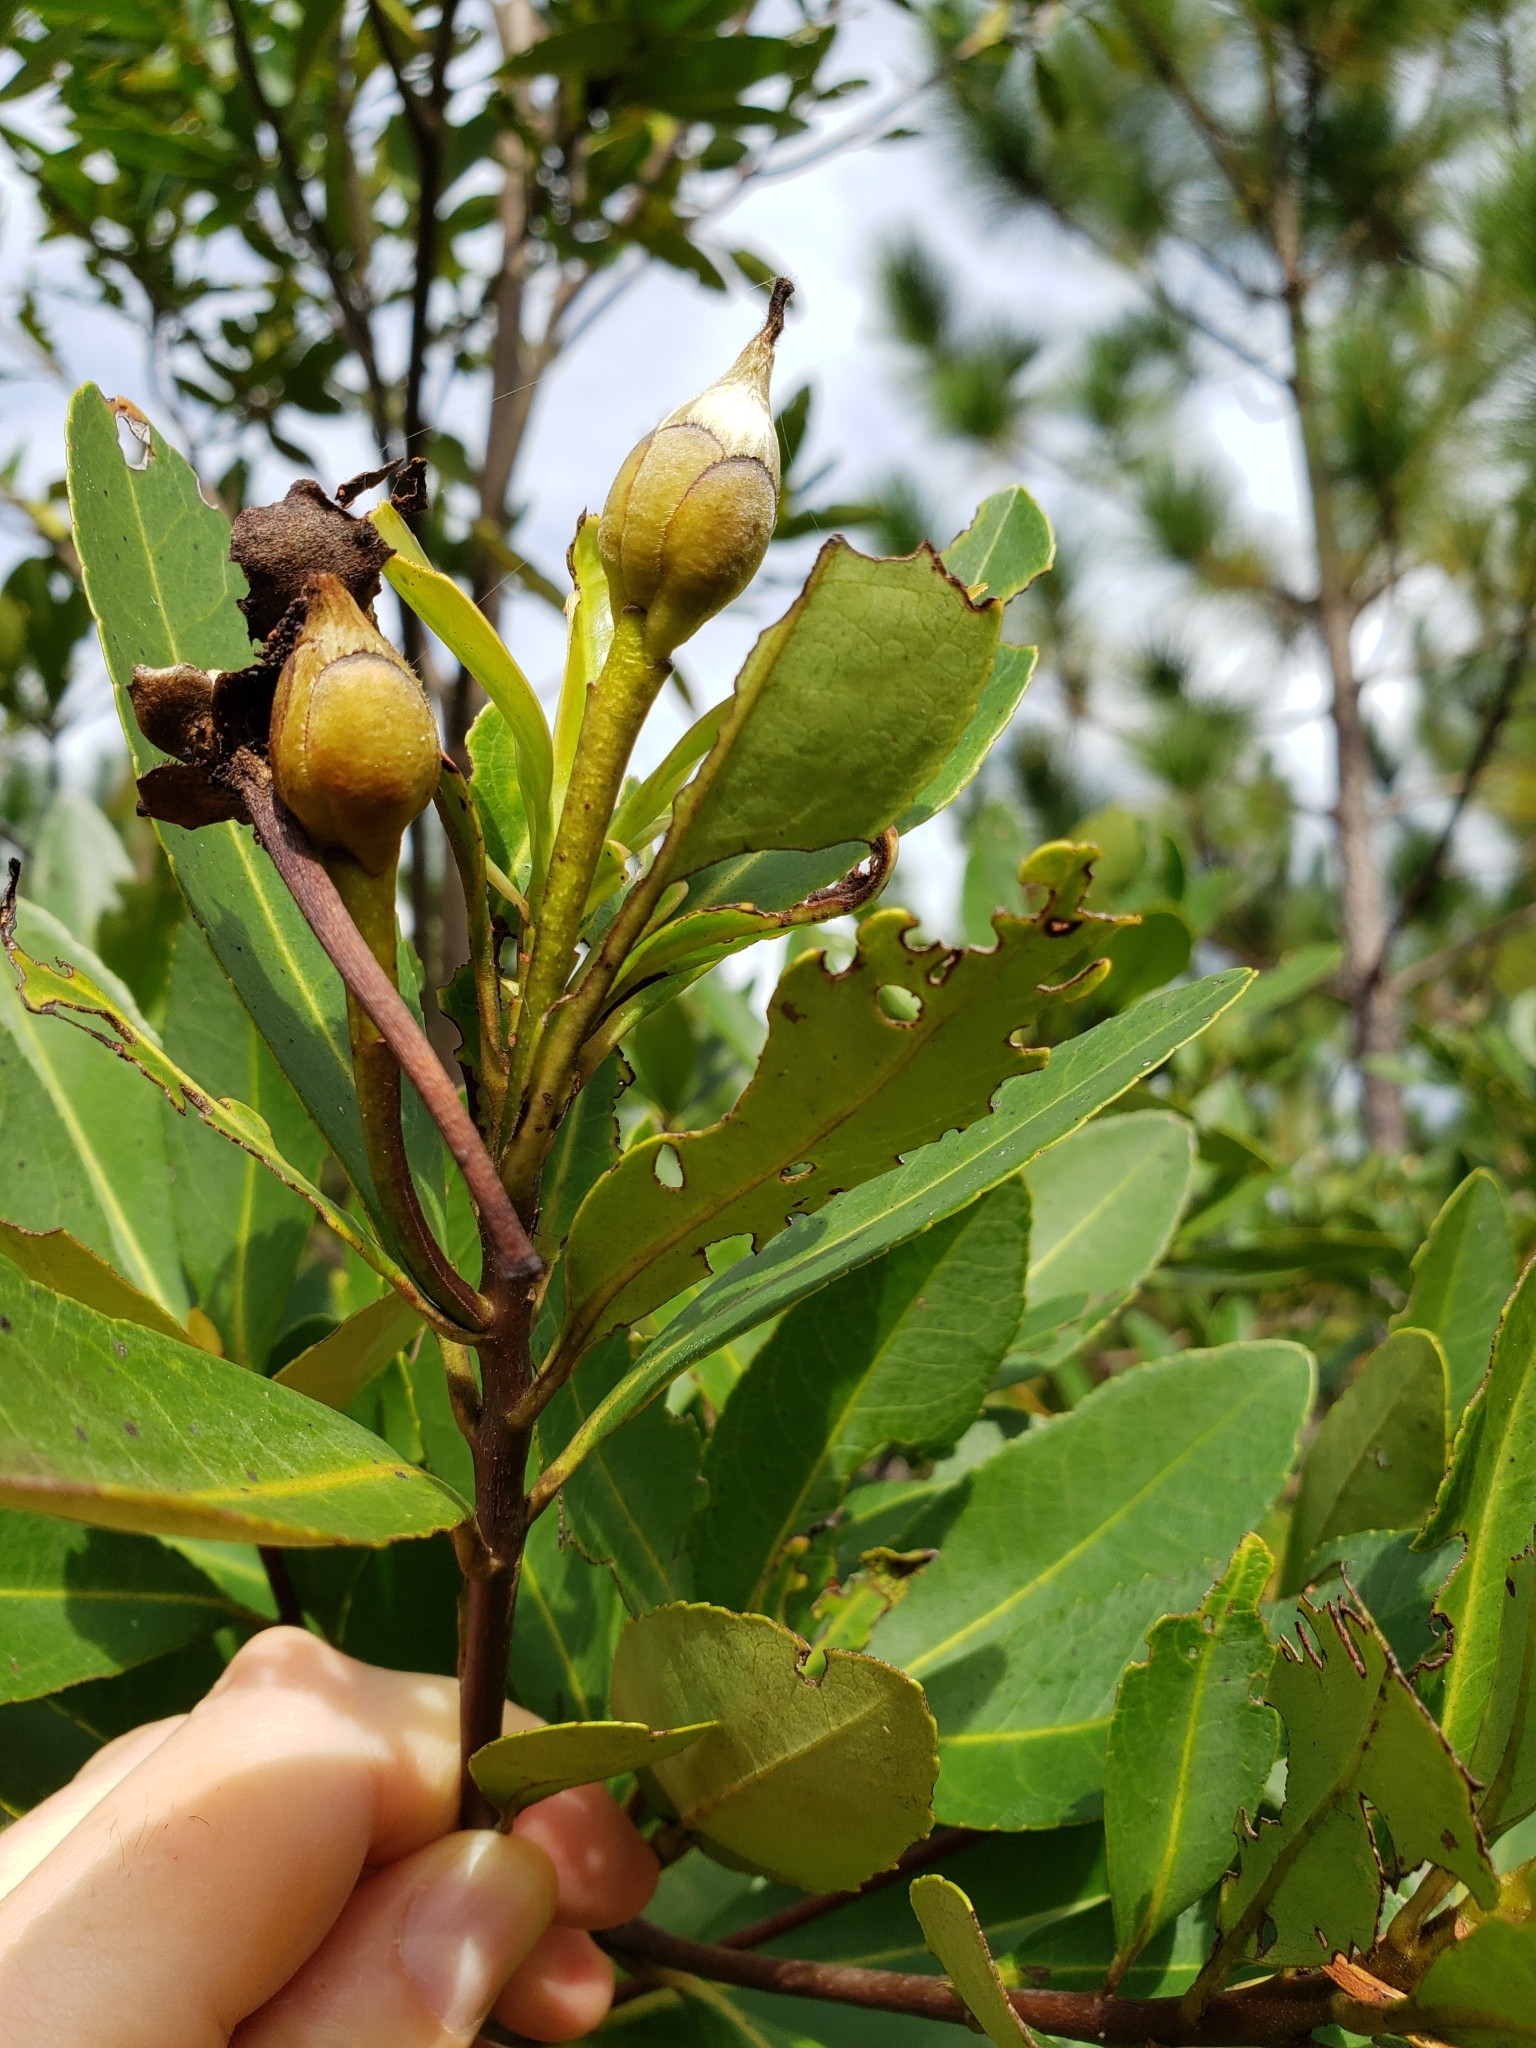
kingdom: Plantae
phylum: Tracheophyta
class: Magnoliopsida
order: Ericales
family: Theaceae
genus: Gordonia
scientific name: Gordonia lasianthus
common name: Loblolly bay
